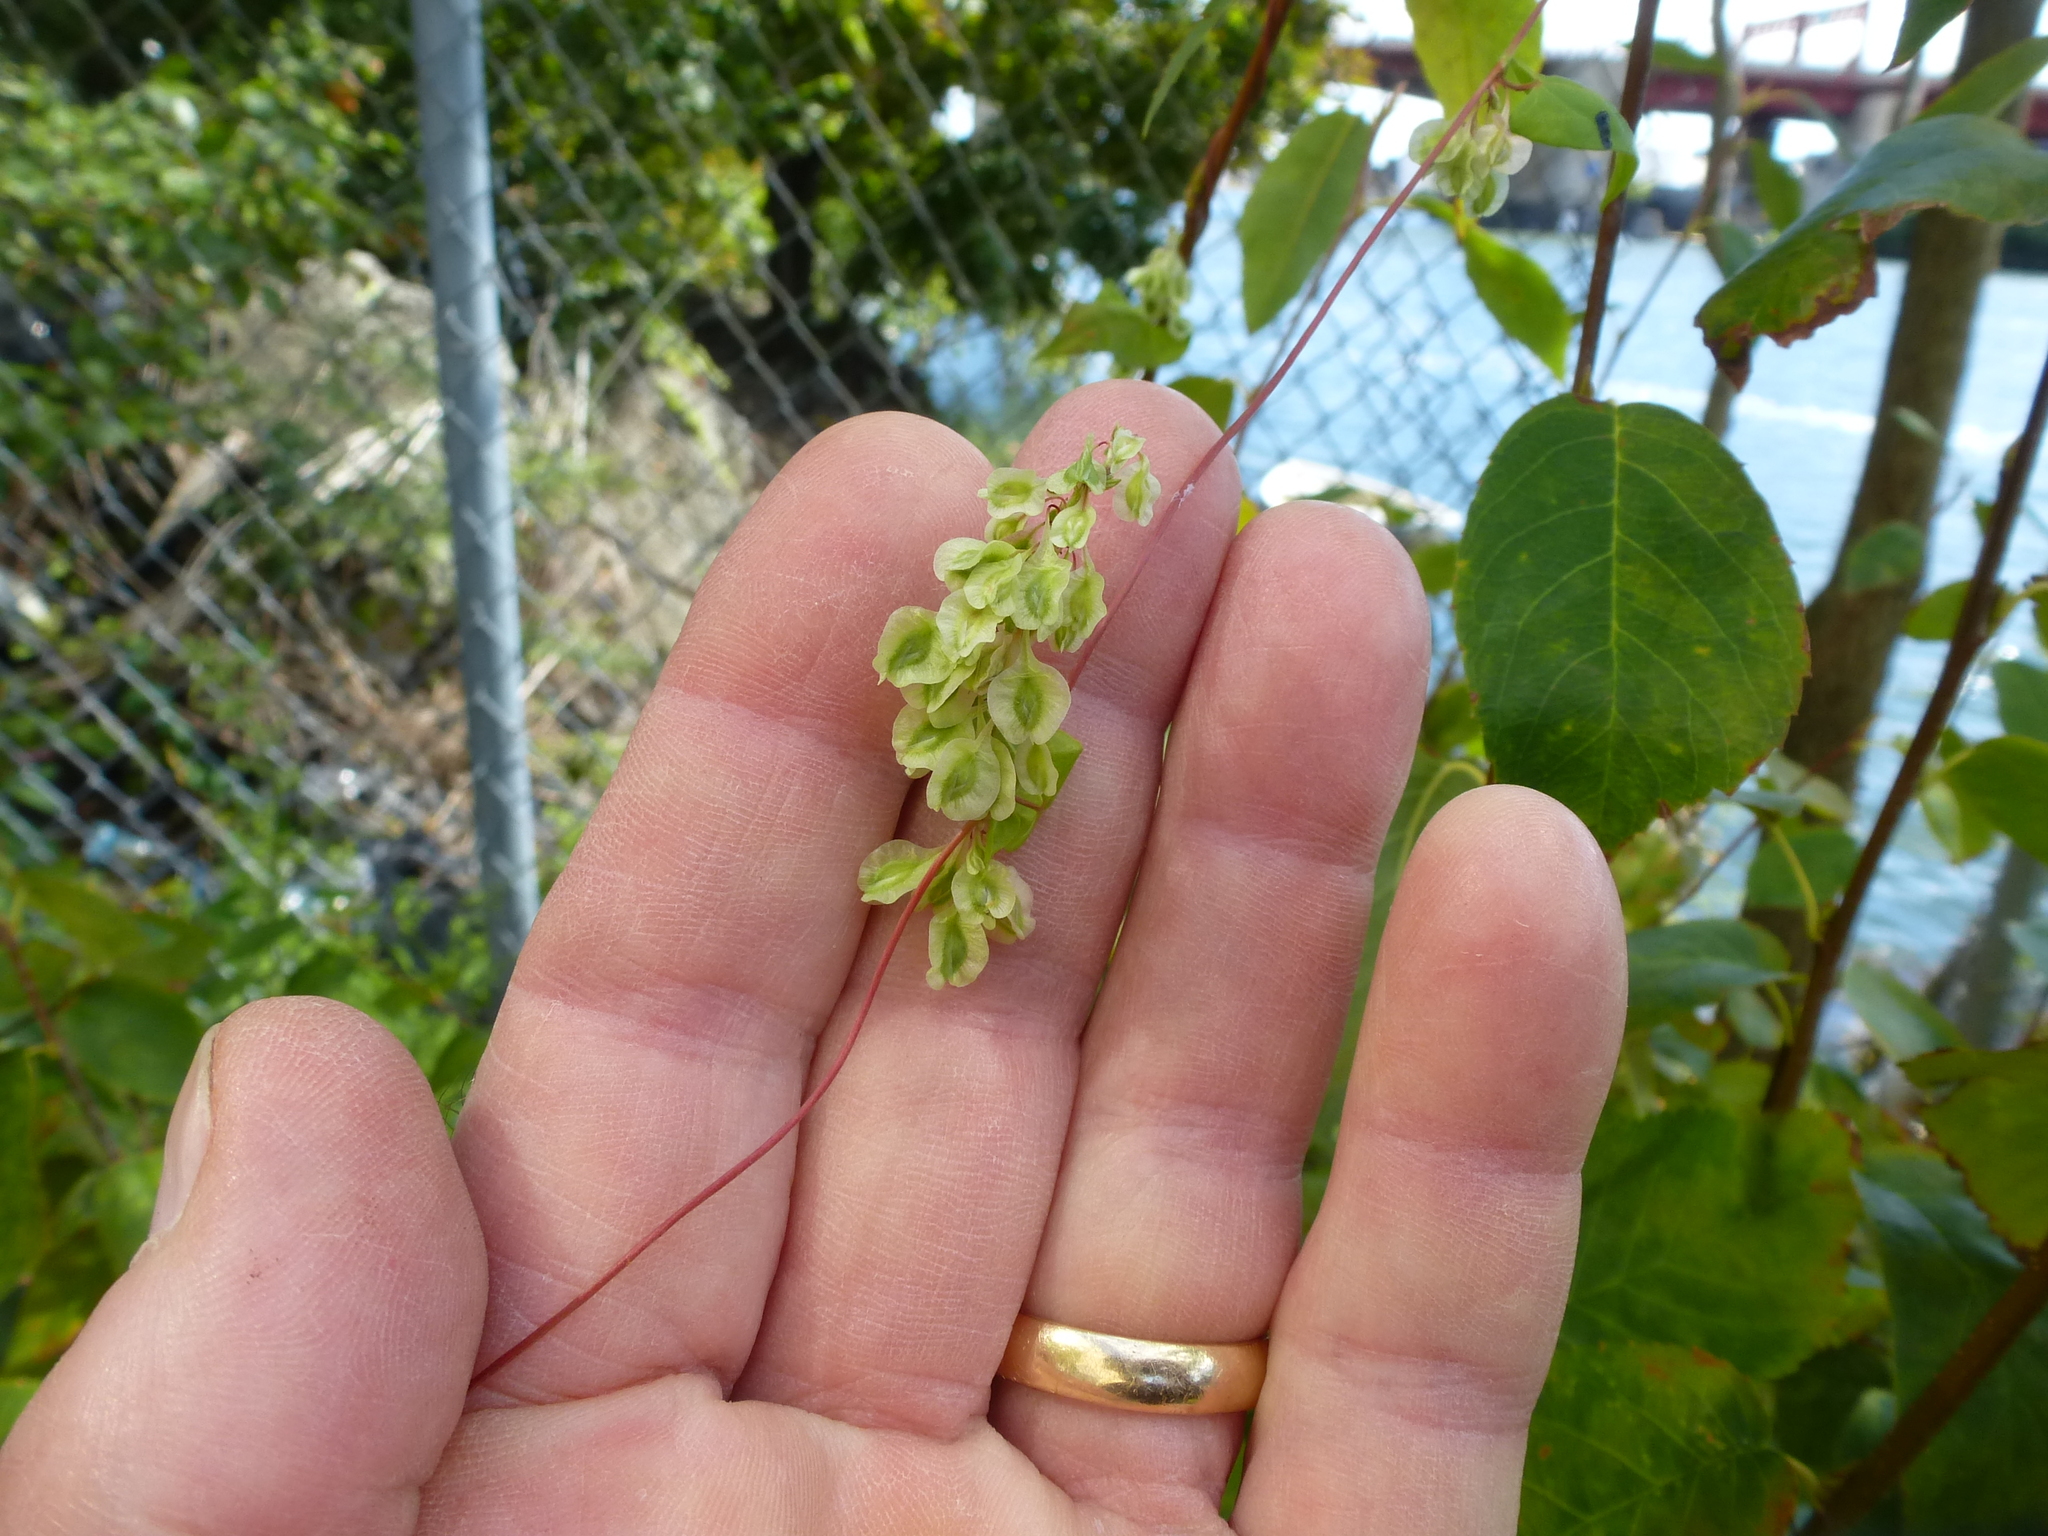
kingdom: Plantae
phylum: Tracheophyta
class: Magnoliopsida
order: Caryophyllales
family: Polygonaceae
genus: Fallopia
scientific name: Fallopia scandens
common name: Climbing false buckwheat
